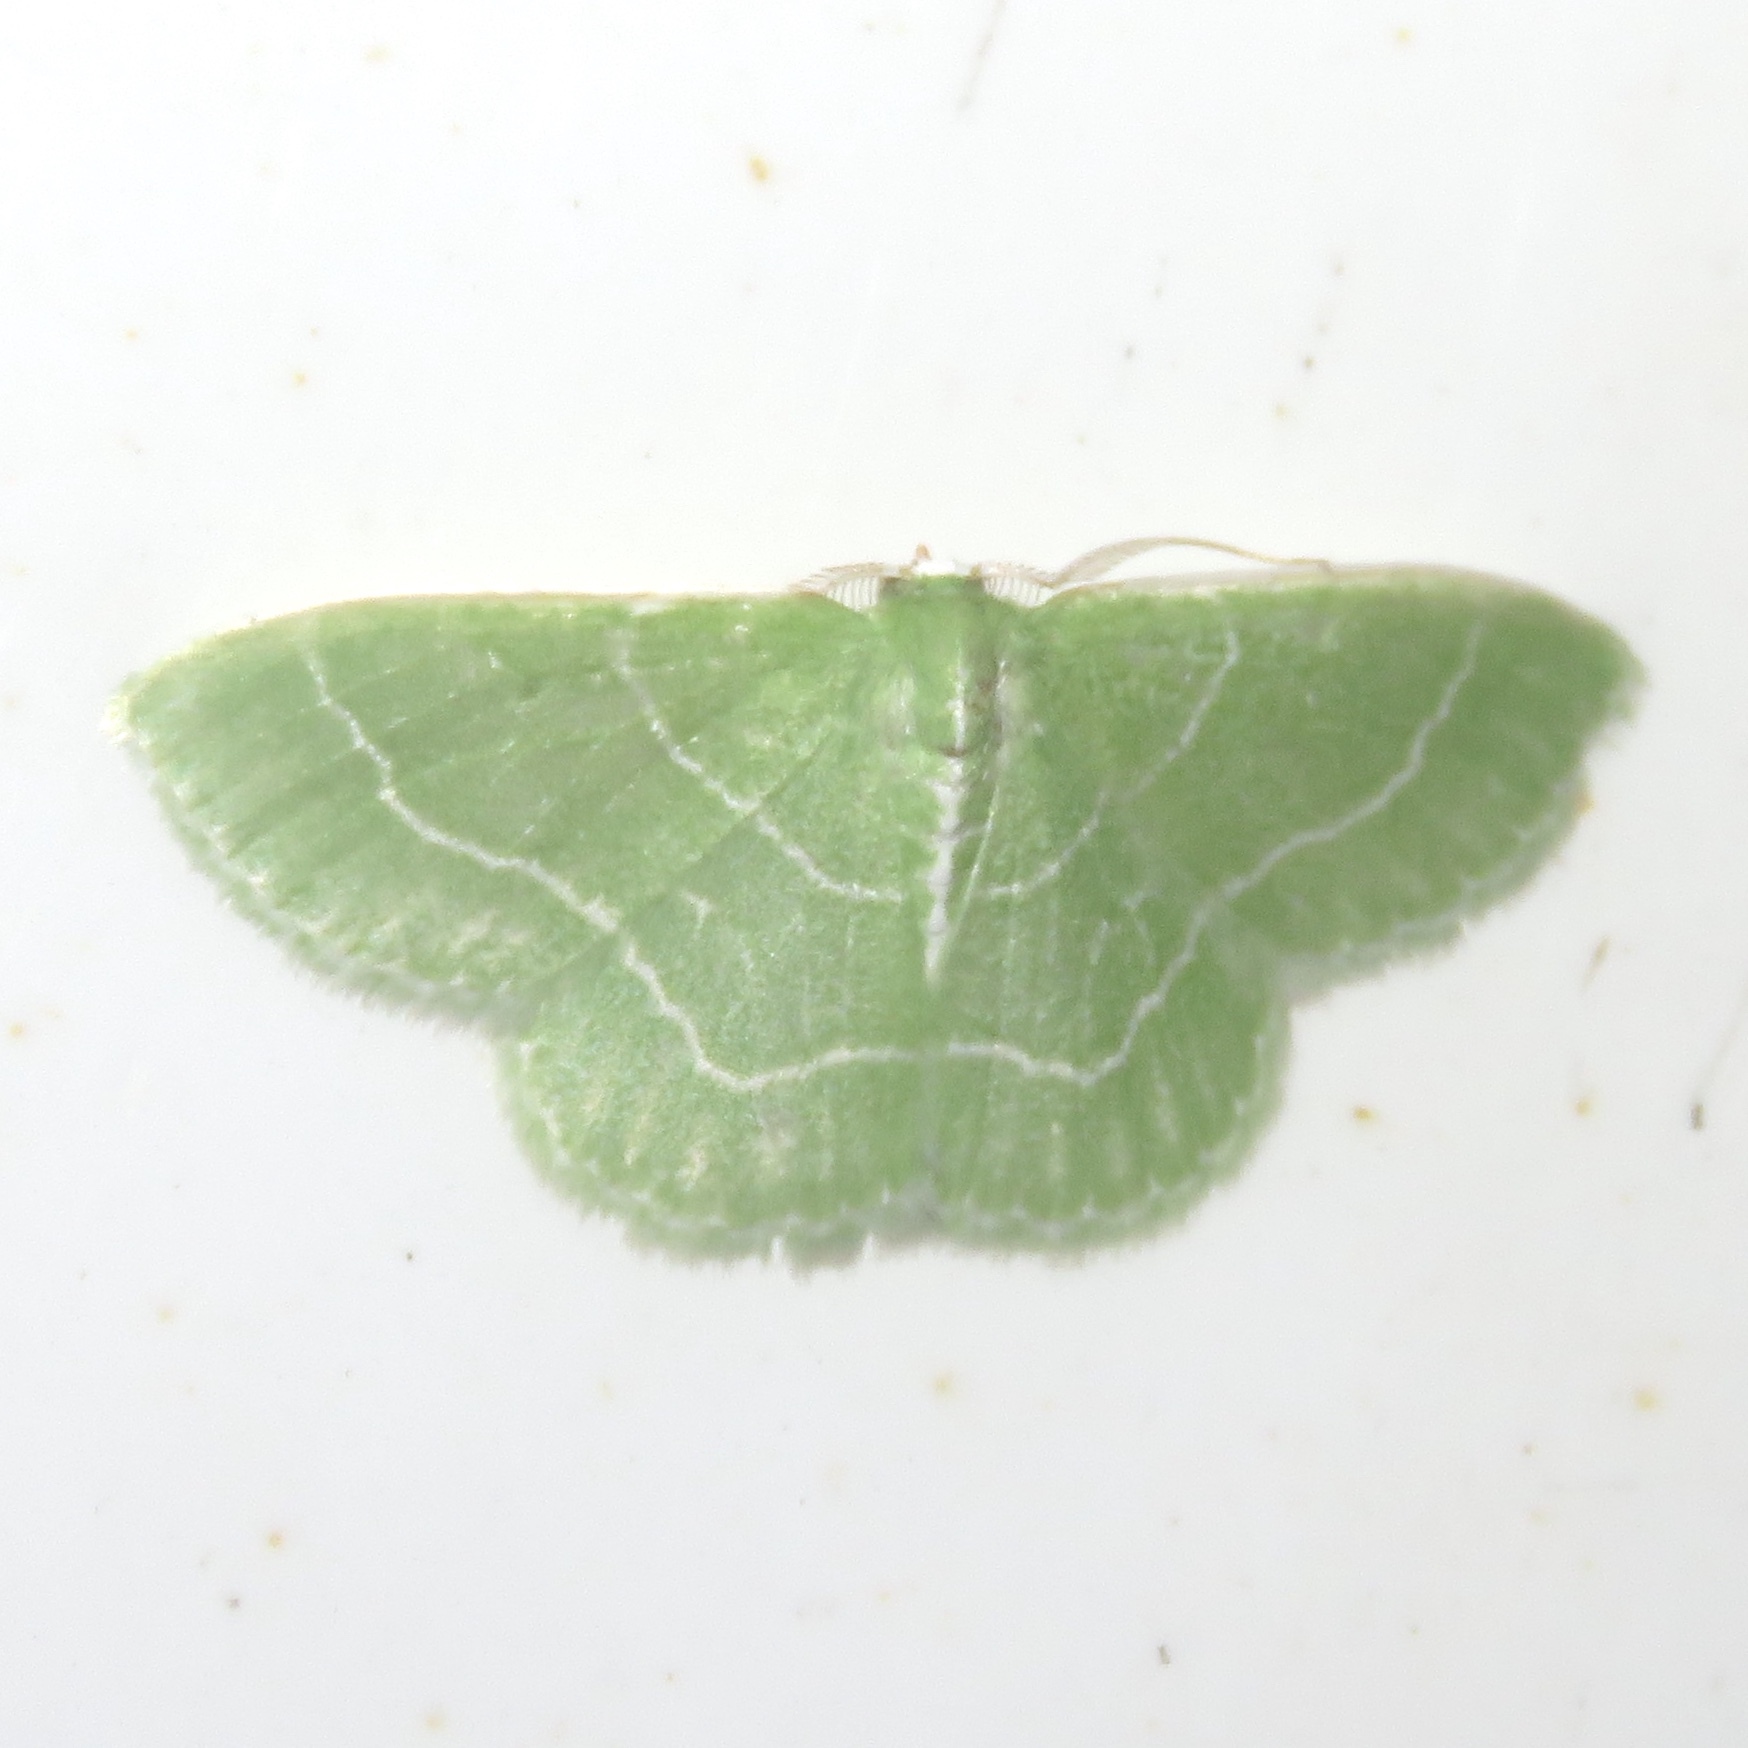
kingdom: Animalia
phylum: Arthropoda
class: Insecta
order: Lepidoptera
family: Geometridae
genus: Synchlora
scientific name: Synchlora aerata
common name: Wavy-lined emerald
